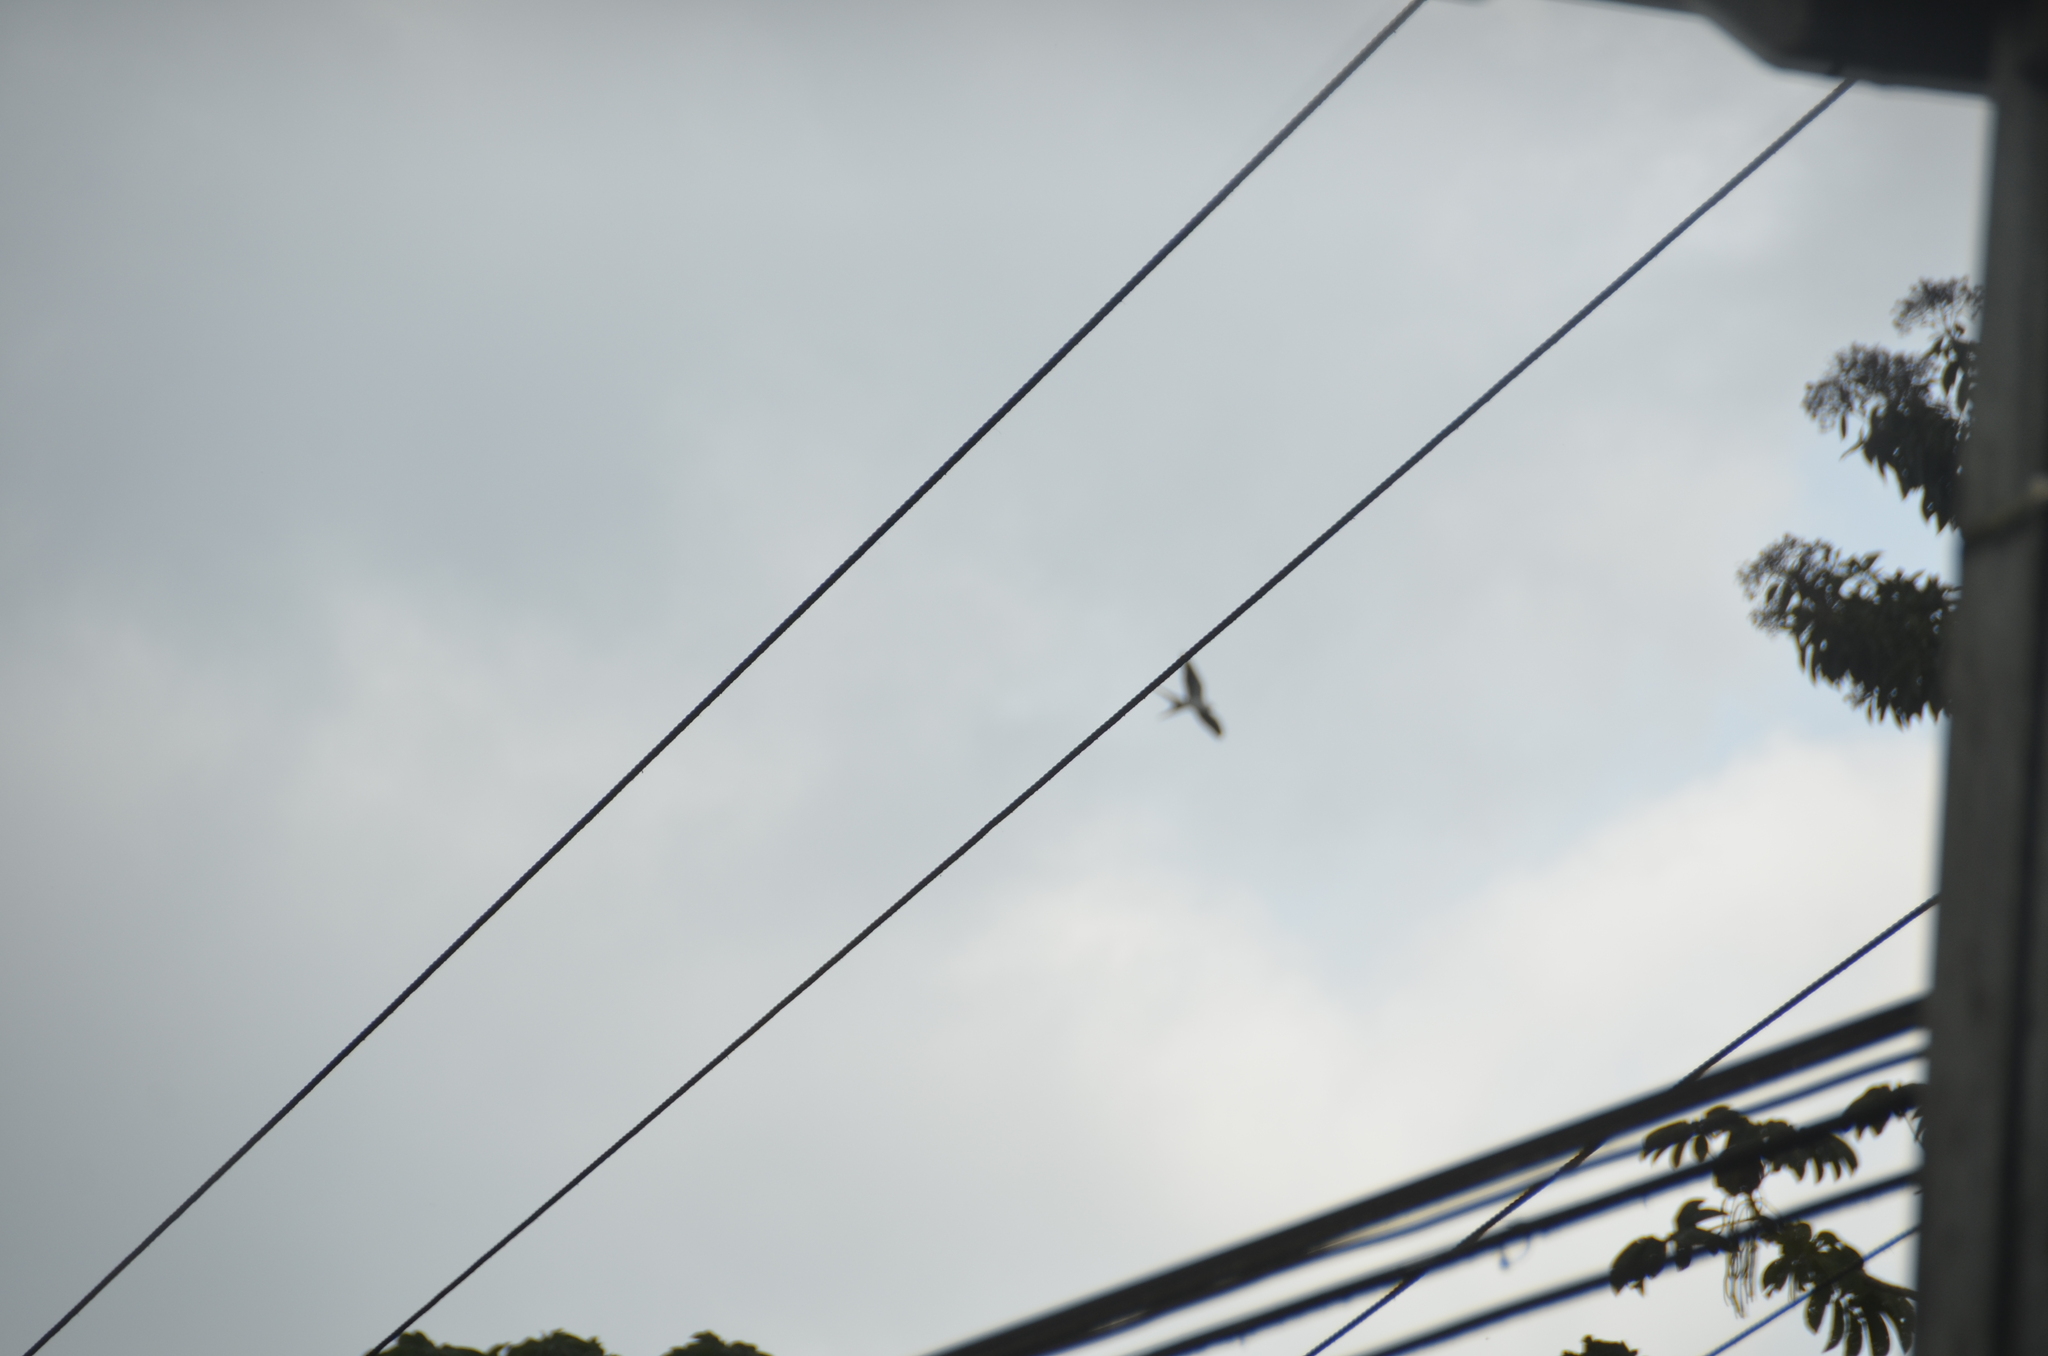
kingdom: Animalia
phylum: Chordata
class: Aves
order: Accipitriformes
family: Accipitridae
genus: Elanoides
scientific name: Elanoides forficatus
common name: Swallow-tailed kite
